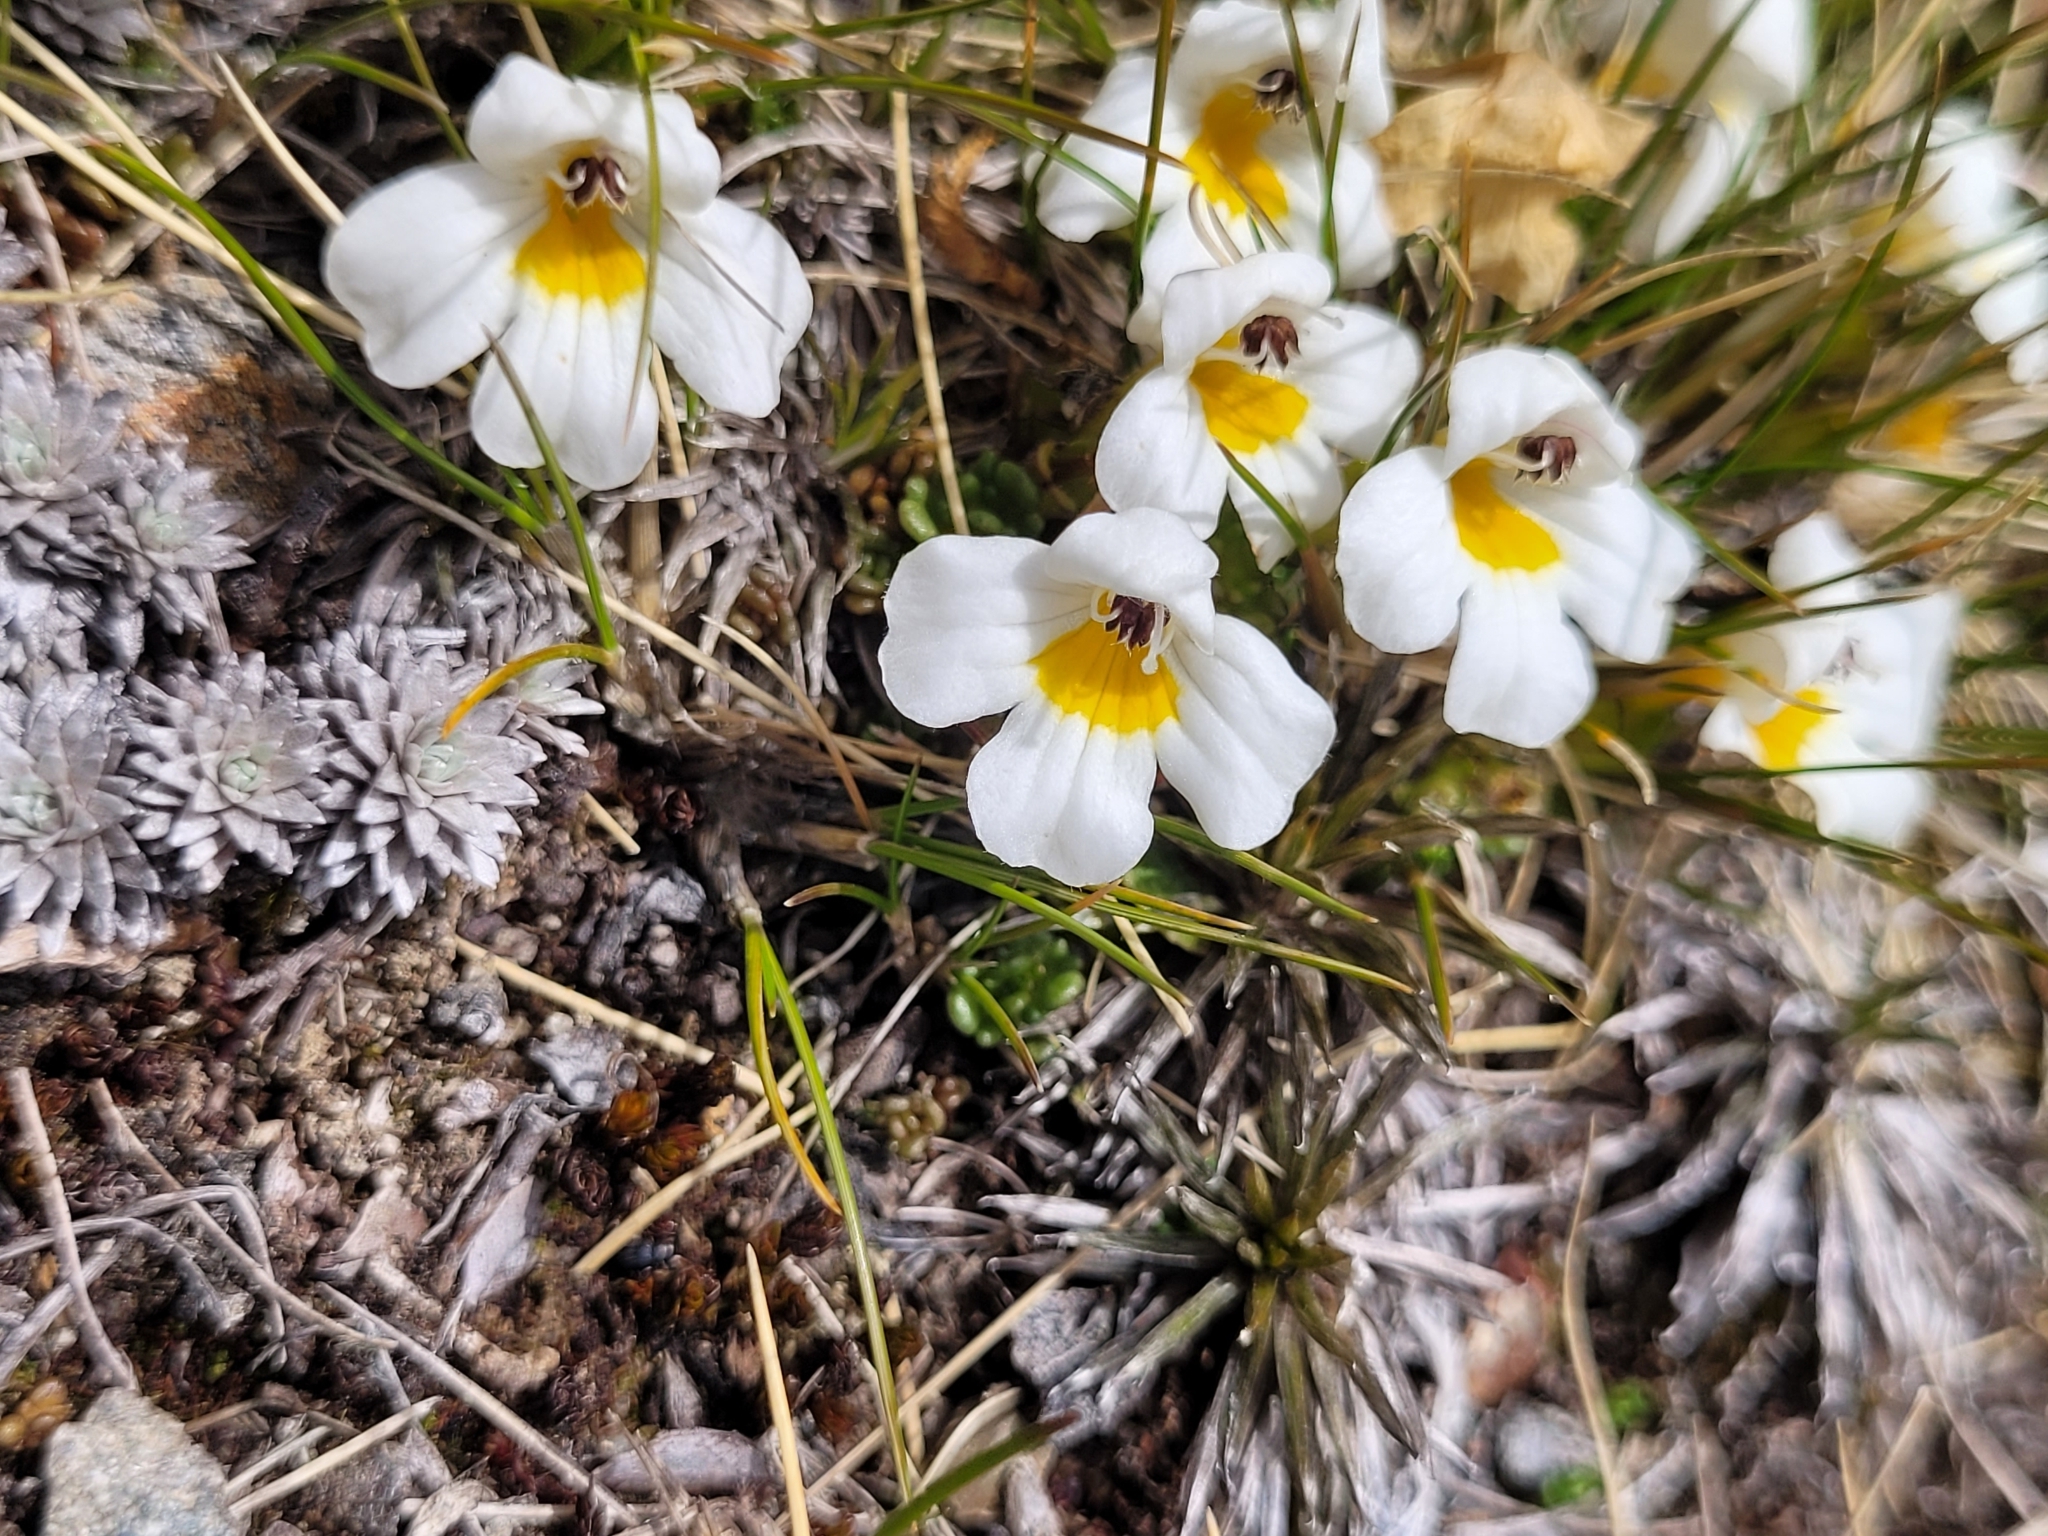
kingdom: Plantae
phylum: Tracheophyta
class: Magnoliopsida
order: Lamiales
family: Orobanchaceae
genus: Euphrasia
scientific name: Euphrasia revoluta
